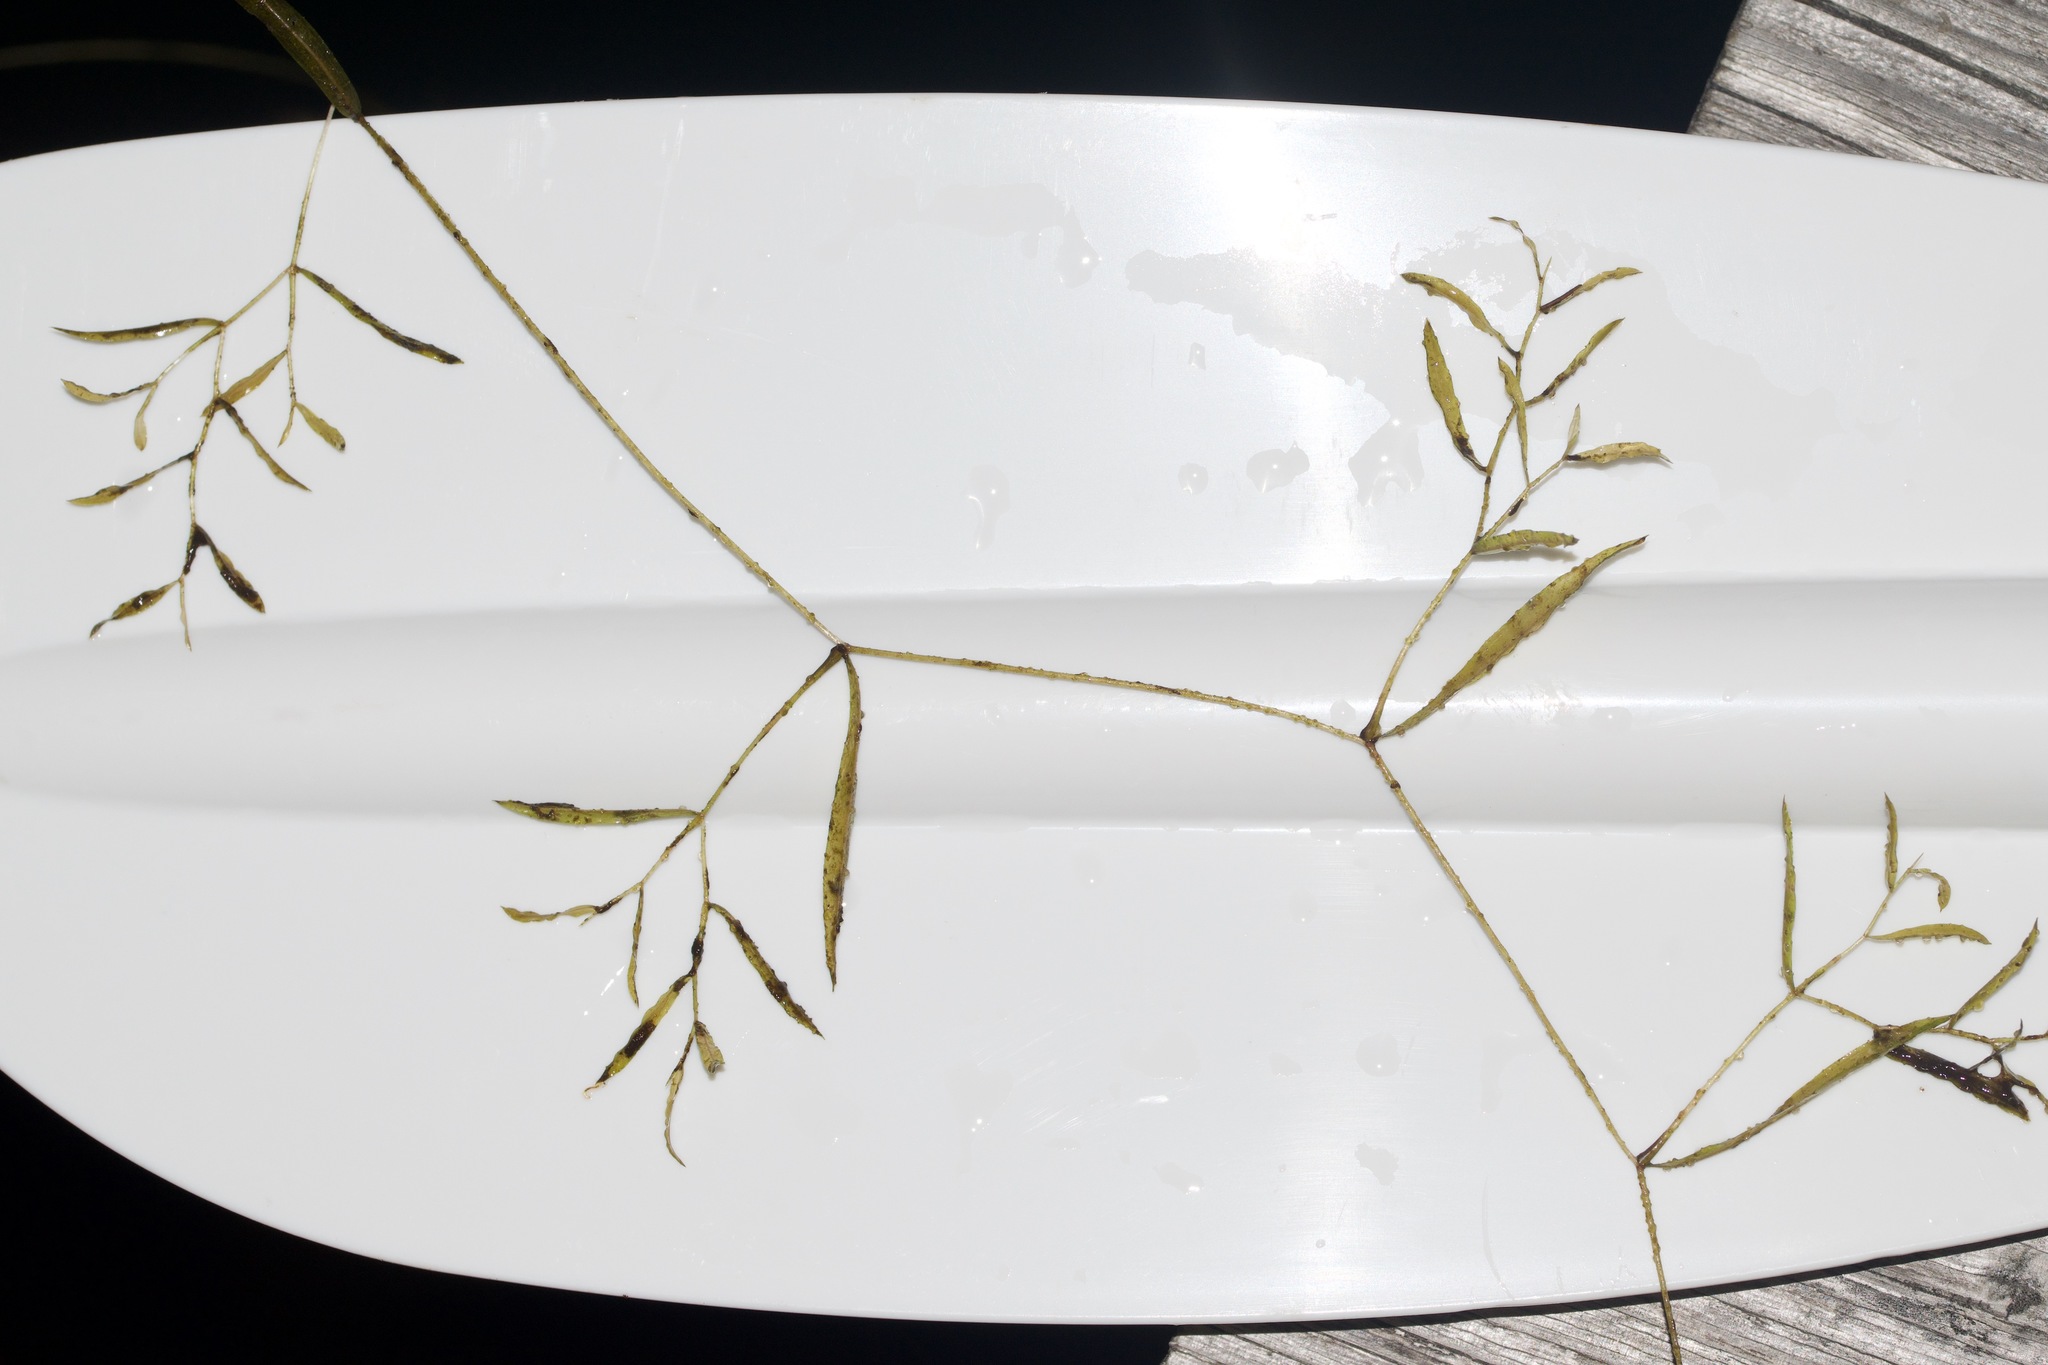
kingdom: Plantae
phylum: Tracheophyta
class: Liliopsida
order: Alismatales
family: Potamogetonaceae
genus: Potamogeton
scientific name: Potamogeton gramineus
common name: Various-leaved pondweed
